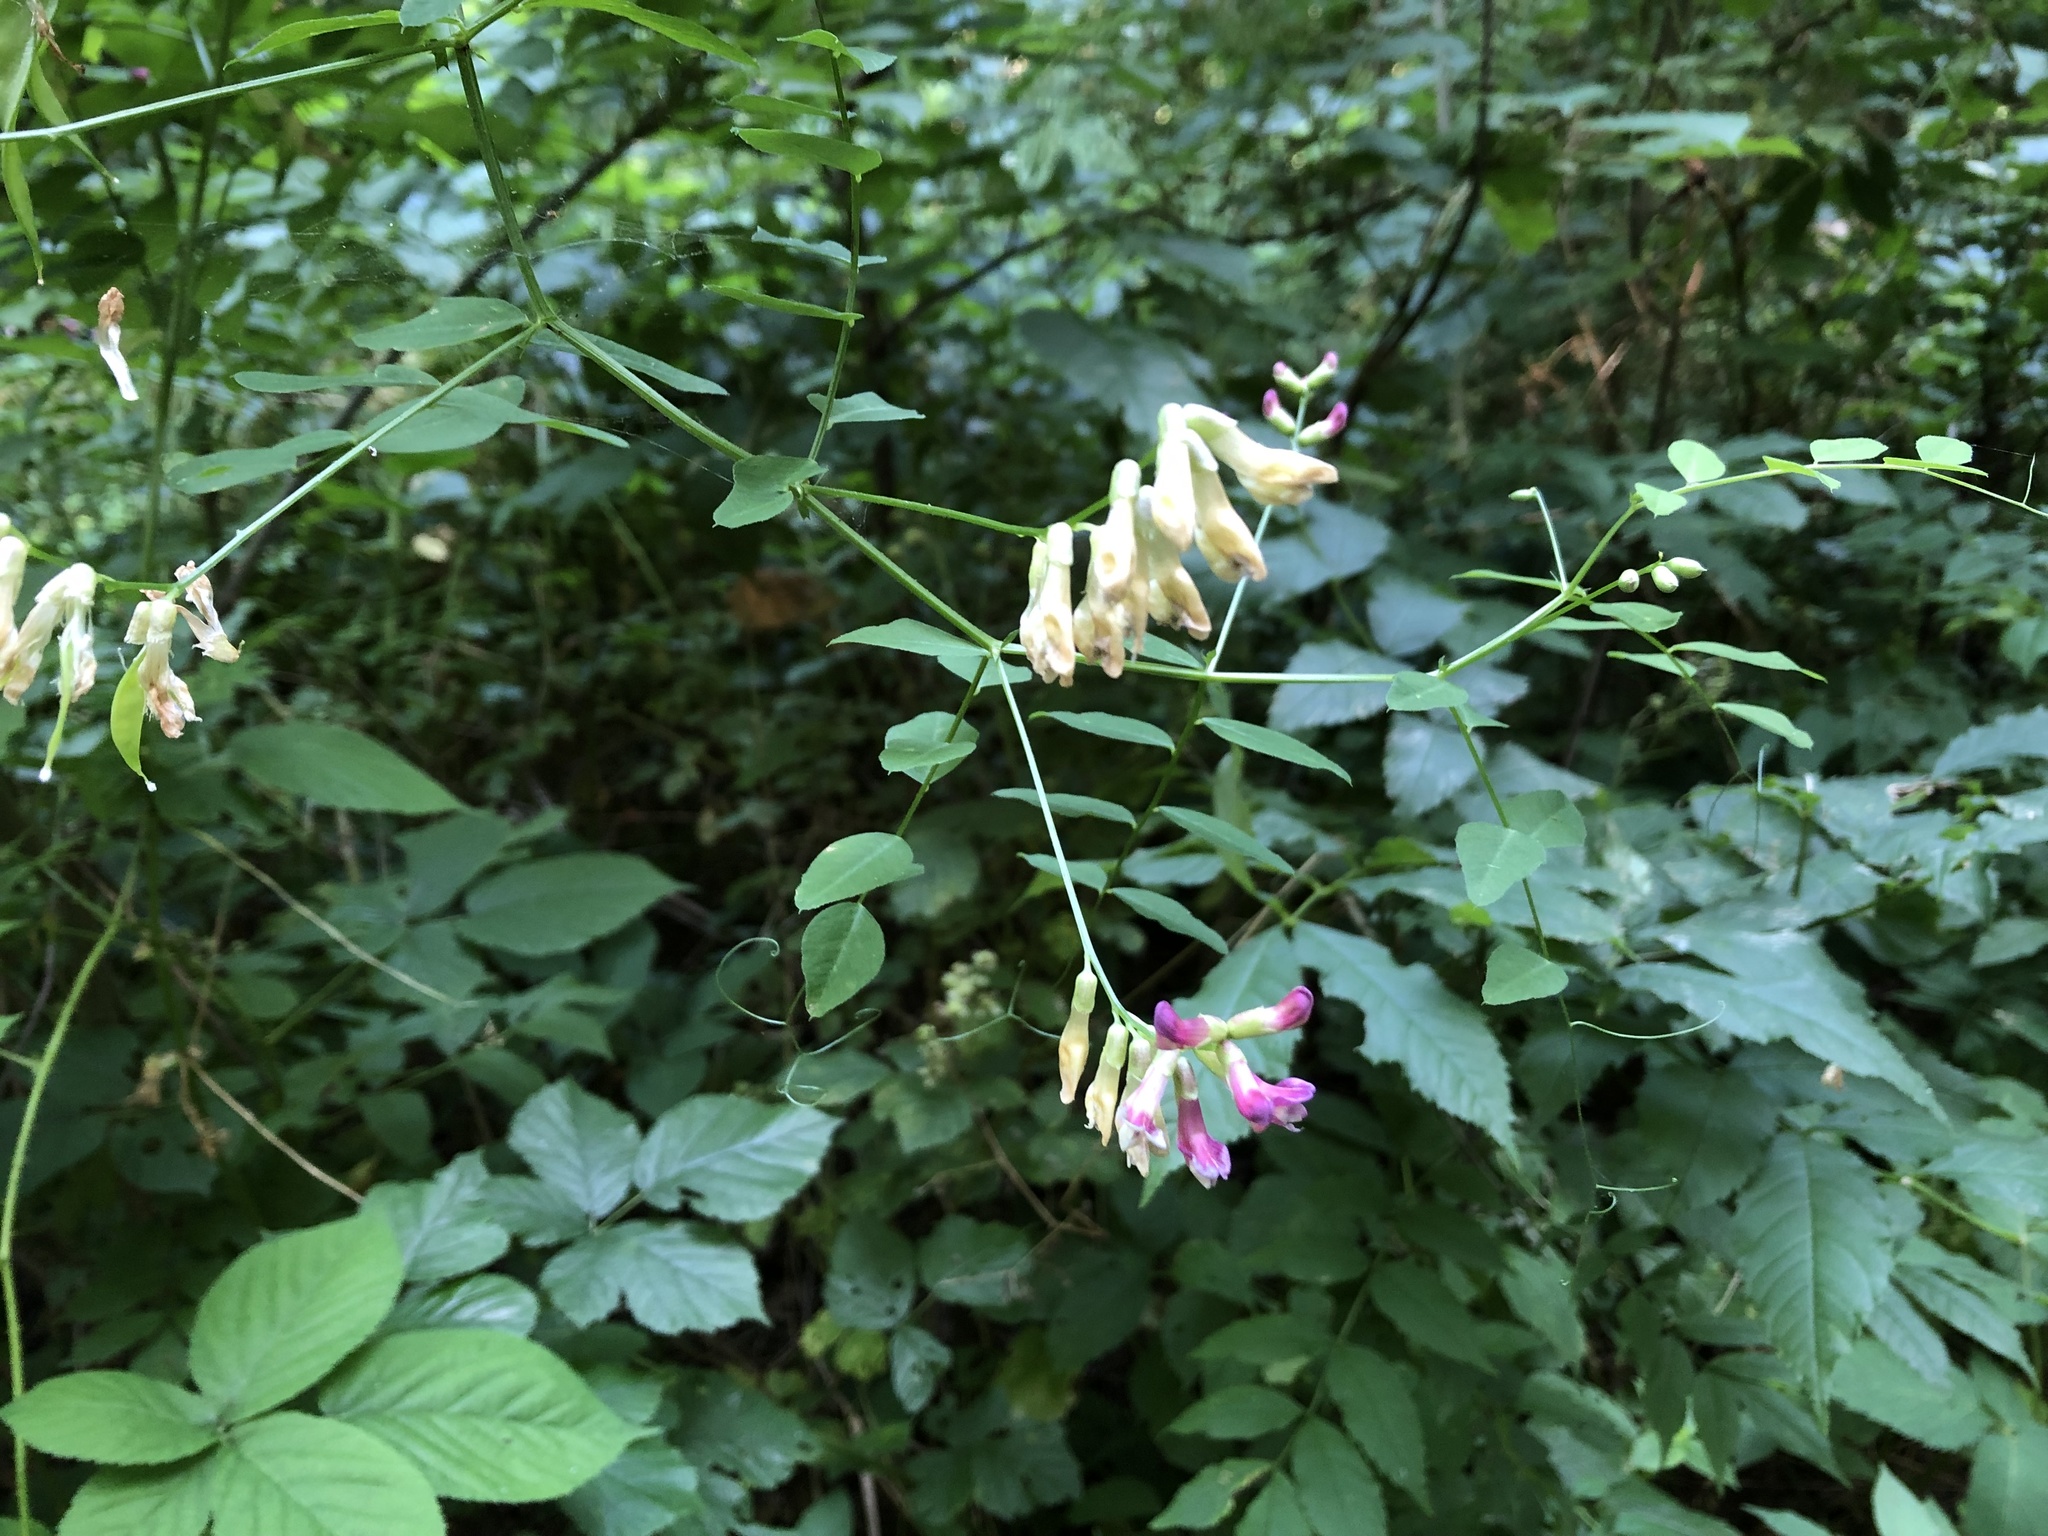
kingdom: Plantae
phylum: Tracheophyta
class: Magnoliopsida
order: Fabales
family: Fabaceae
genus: Vicia
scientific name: Vicia dumetorum
